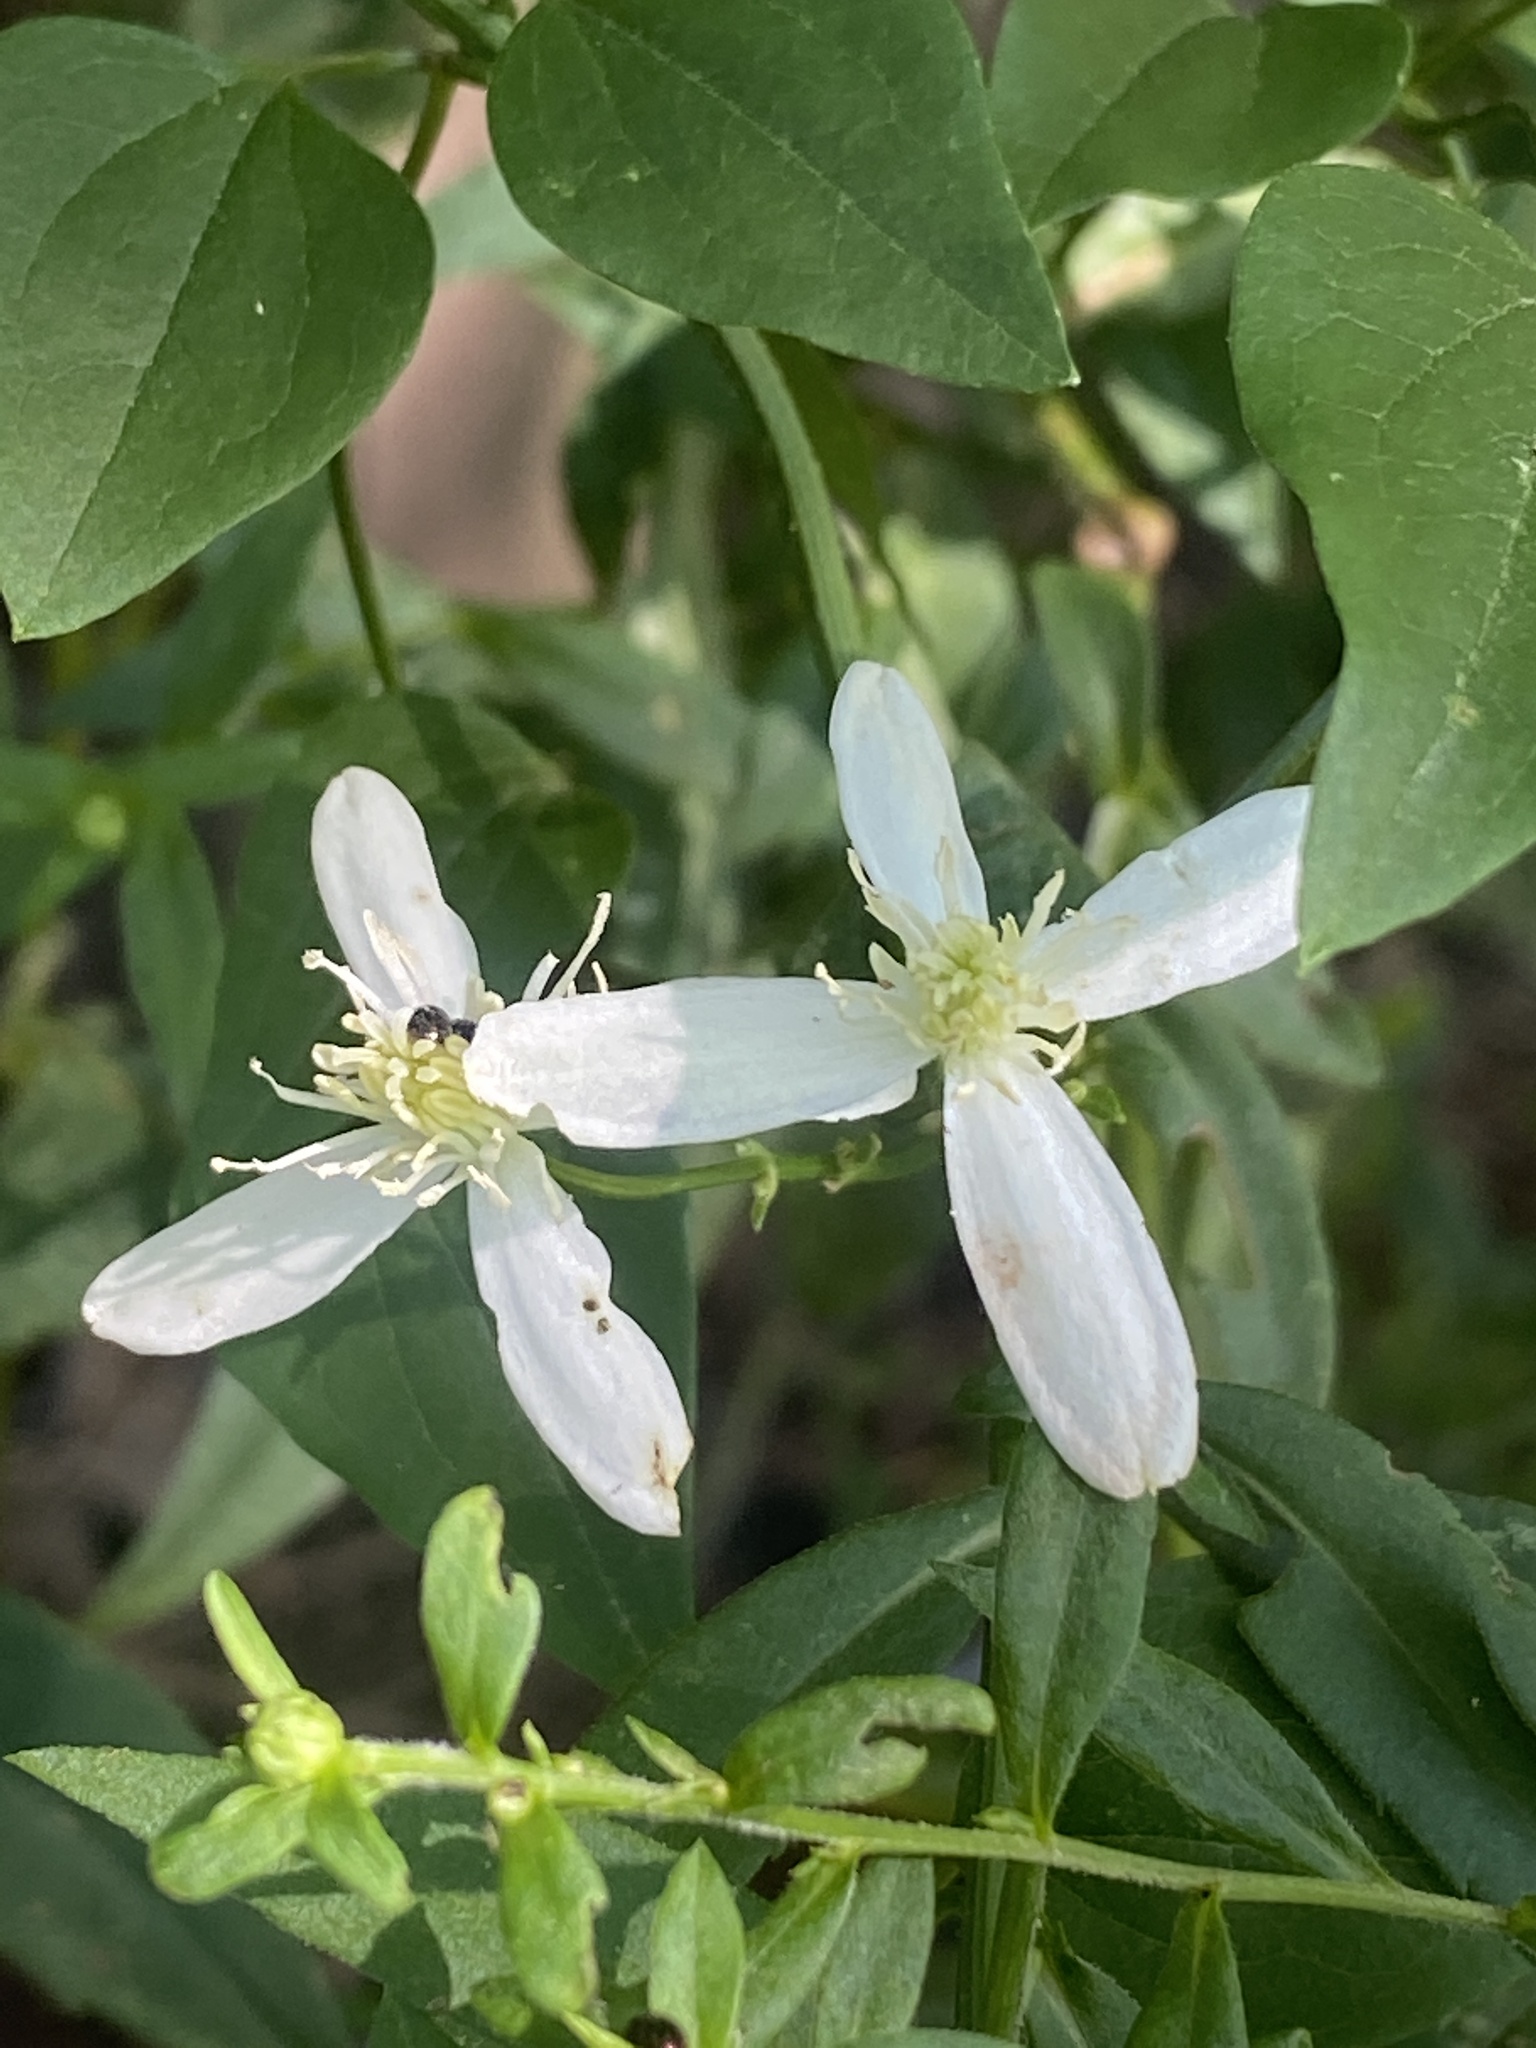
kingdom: Plantae
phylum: Tracheophyta
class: Magnoliopsida
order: Ranunculales
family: Ranunculaceae
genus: Clematis
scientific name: Clematis terniflora
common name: Sweet autumn clematis
